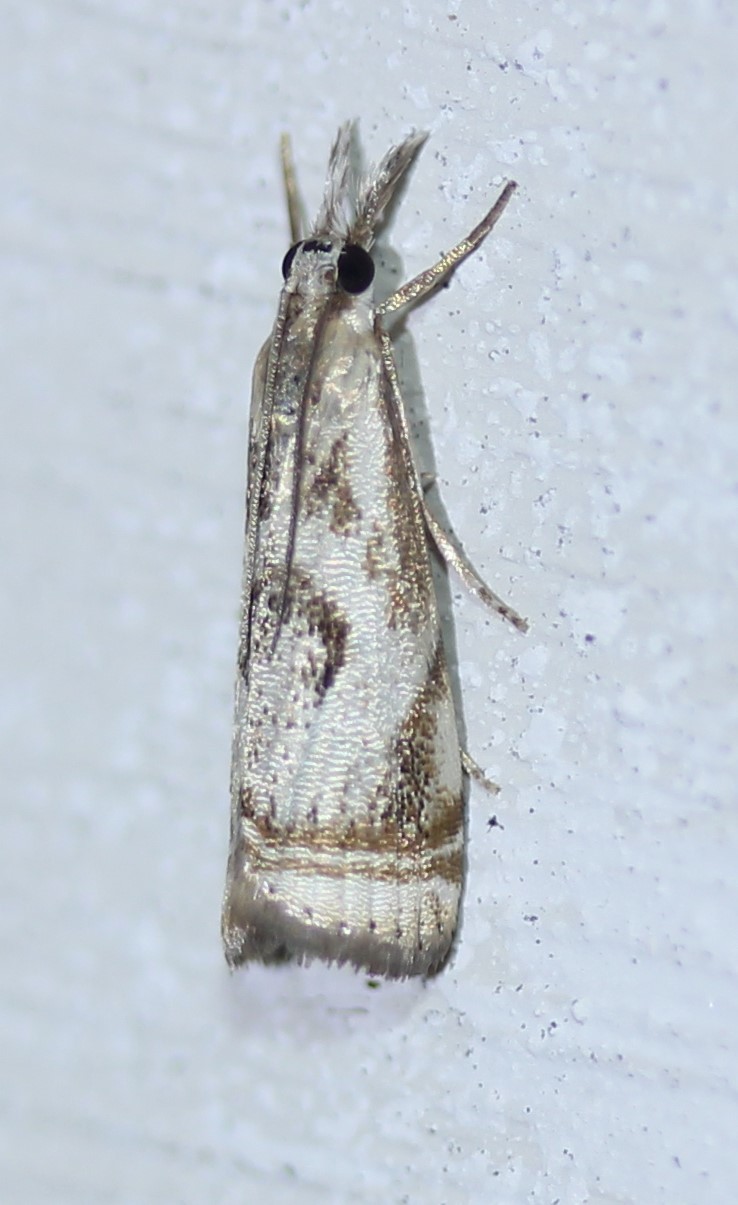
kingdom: Animalia
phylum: Arthropoda
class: Insecta
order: Lepidoptera
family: Crambidae
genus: Microcrambus
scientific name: Microcrambus elegans
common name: Elegant grass-veneer
